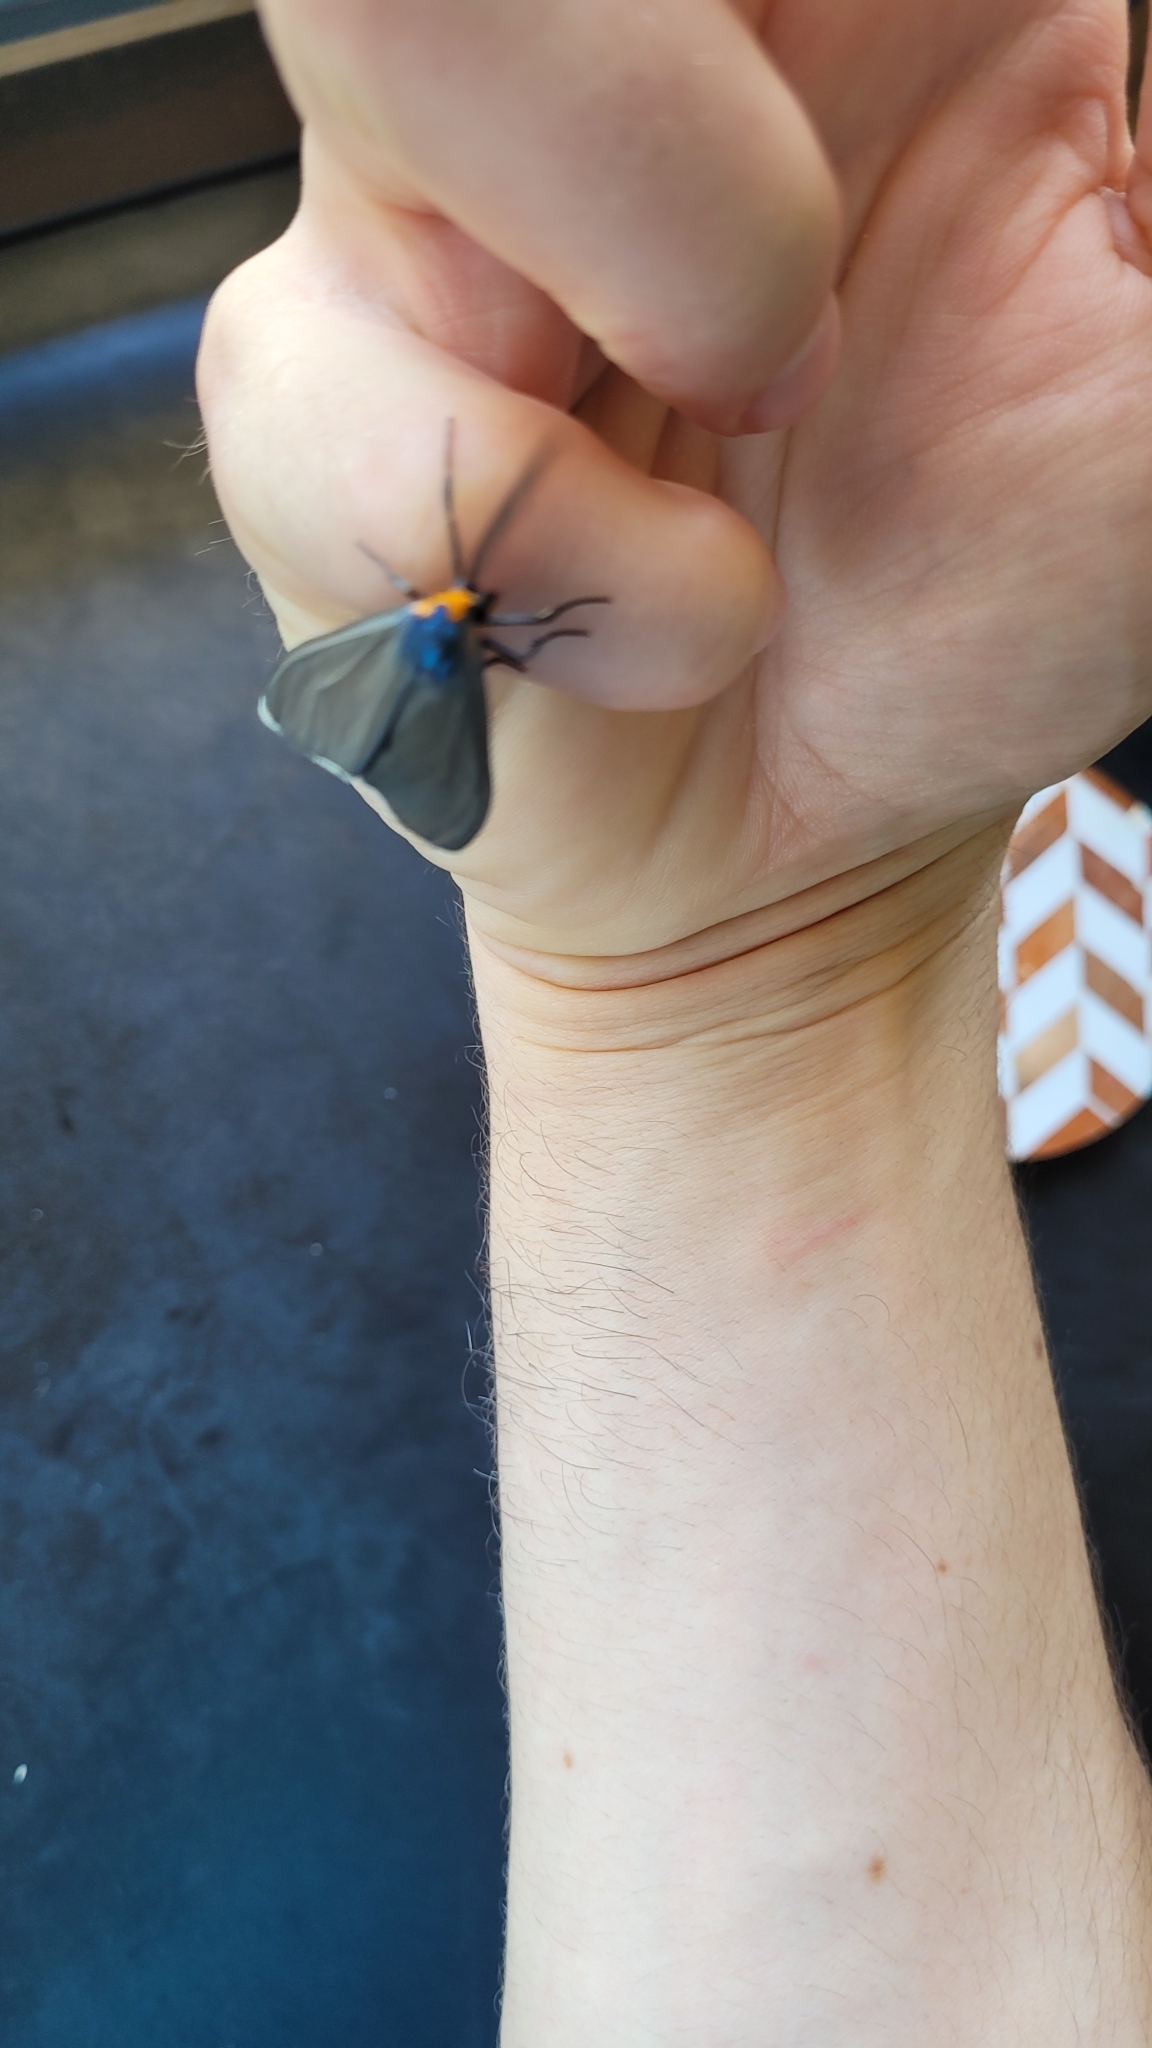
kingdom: Animalia
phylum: Arthropoda
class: Insecta
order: Lepidoptera
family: Erebidae
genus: Ctenucha
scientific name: Ctenucha virginica
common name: Virginia ctenucha moth
